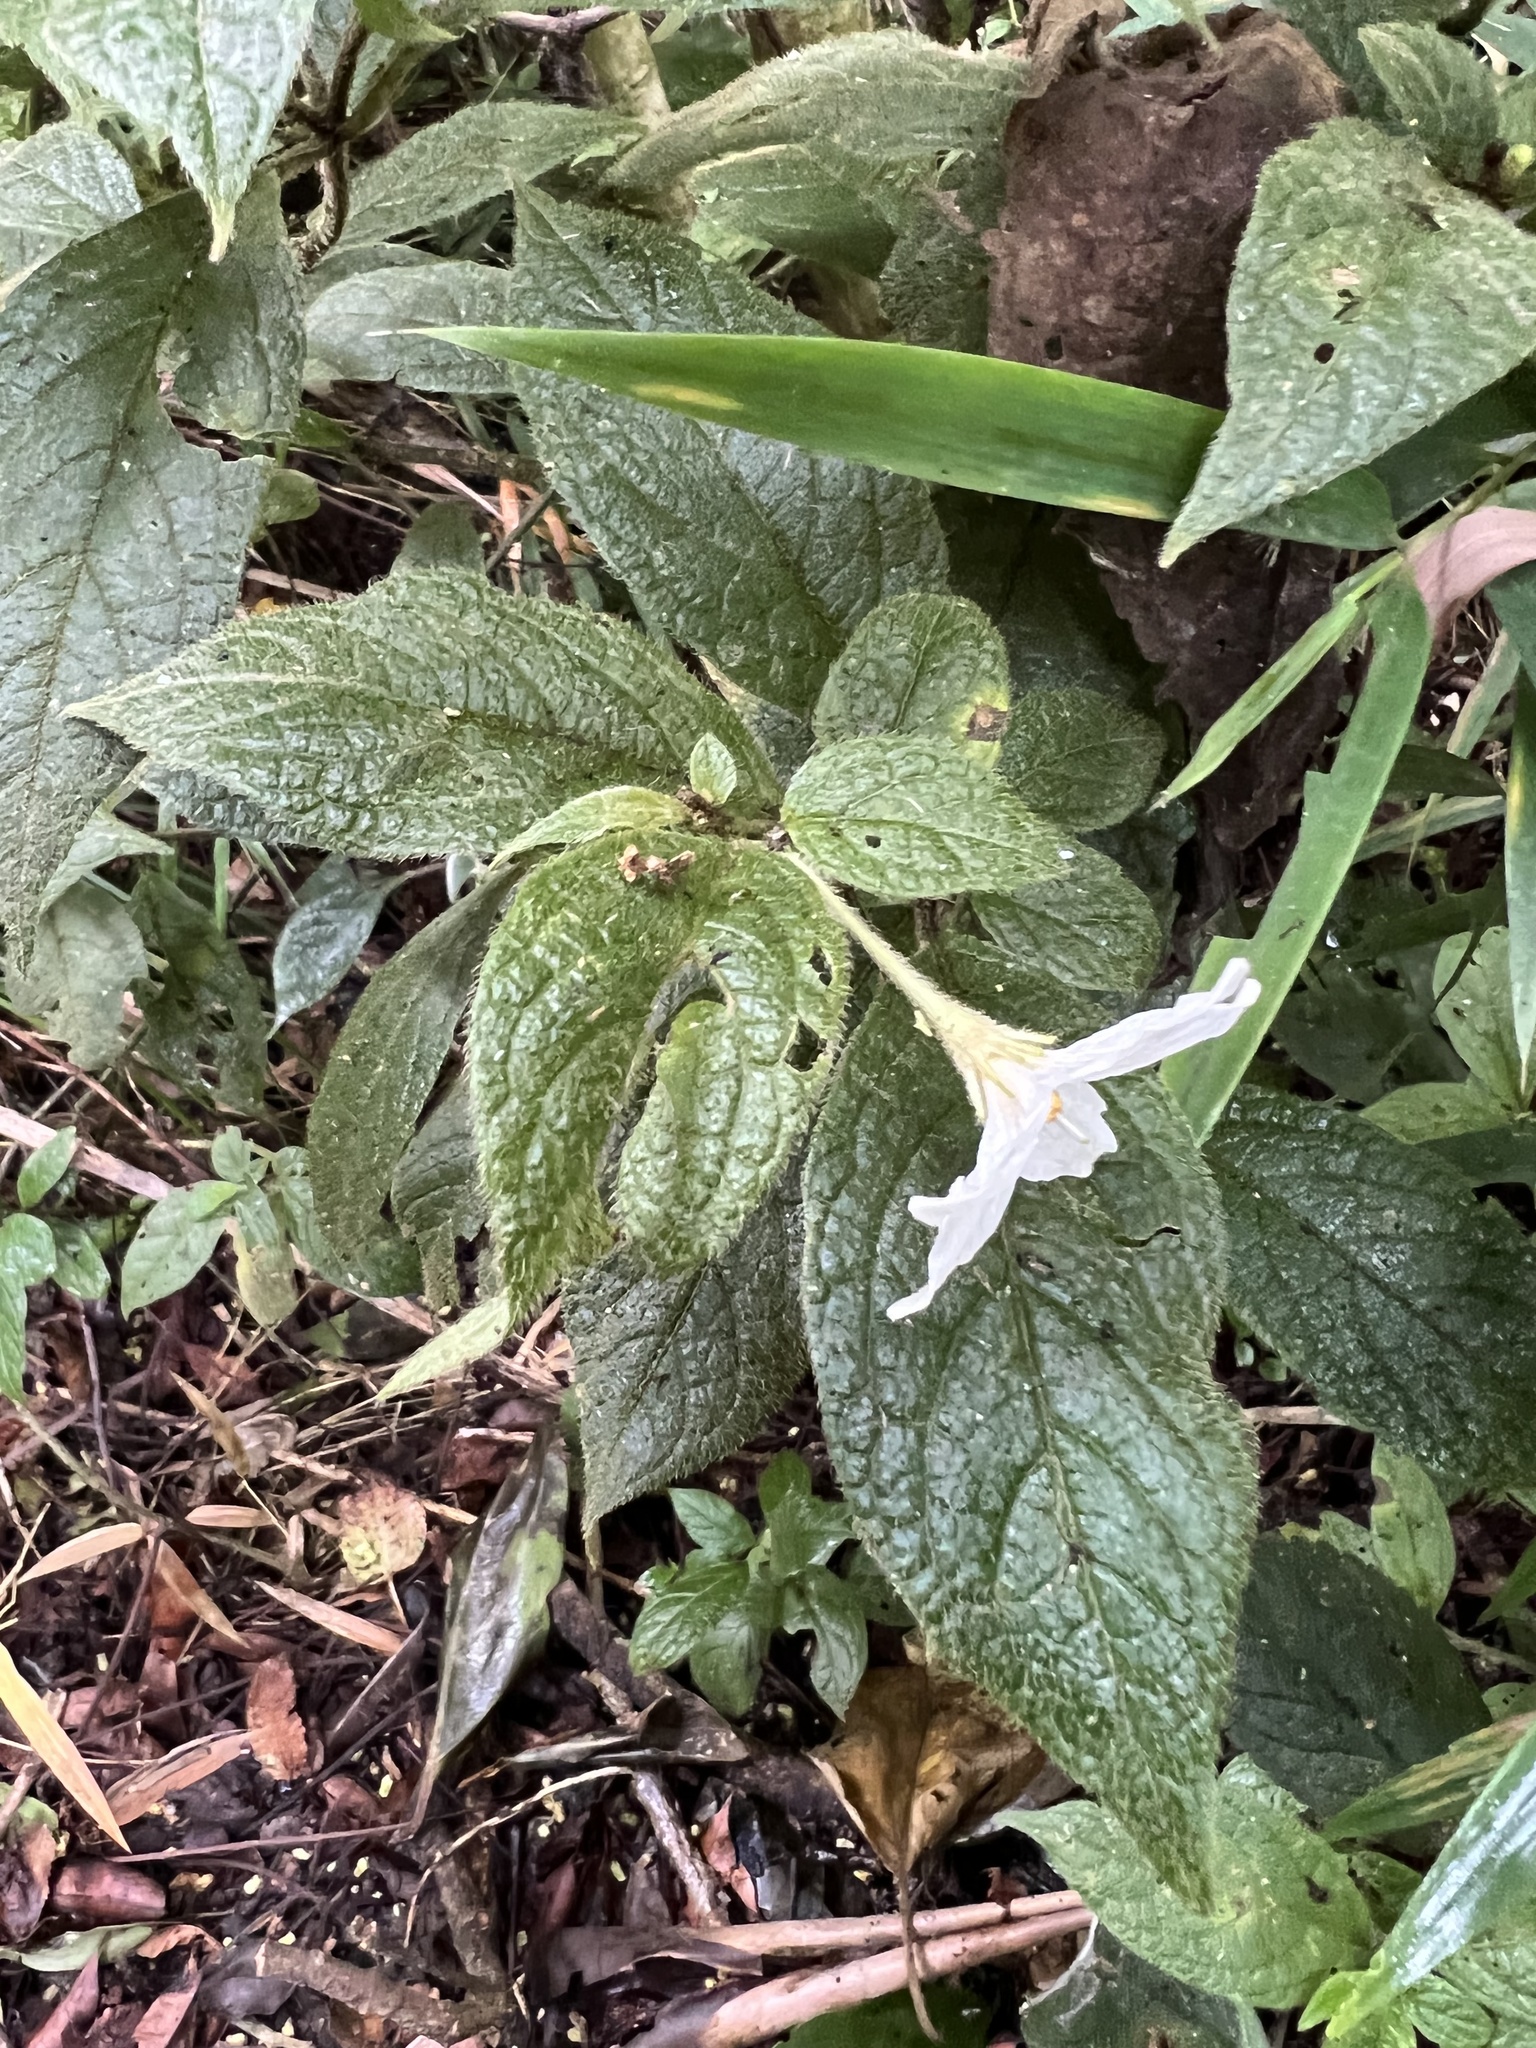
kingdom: Plantae
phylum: Tracheophyta
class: Magnoliopsida
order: Solanales
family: Solanaceae
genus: Lycianthes
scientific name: Lycianthes acutifolia
